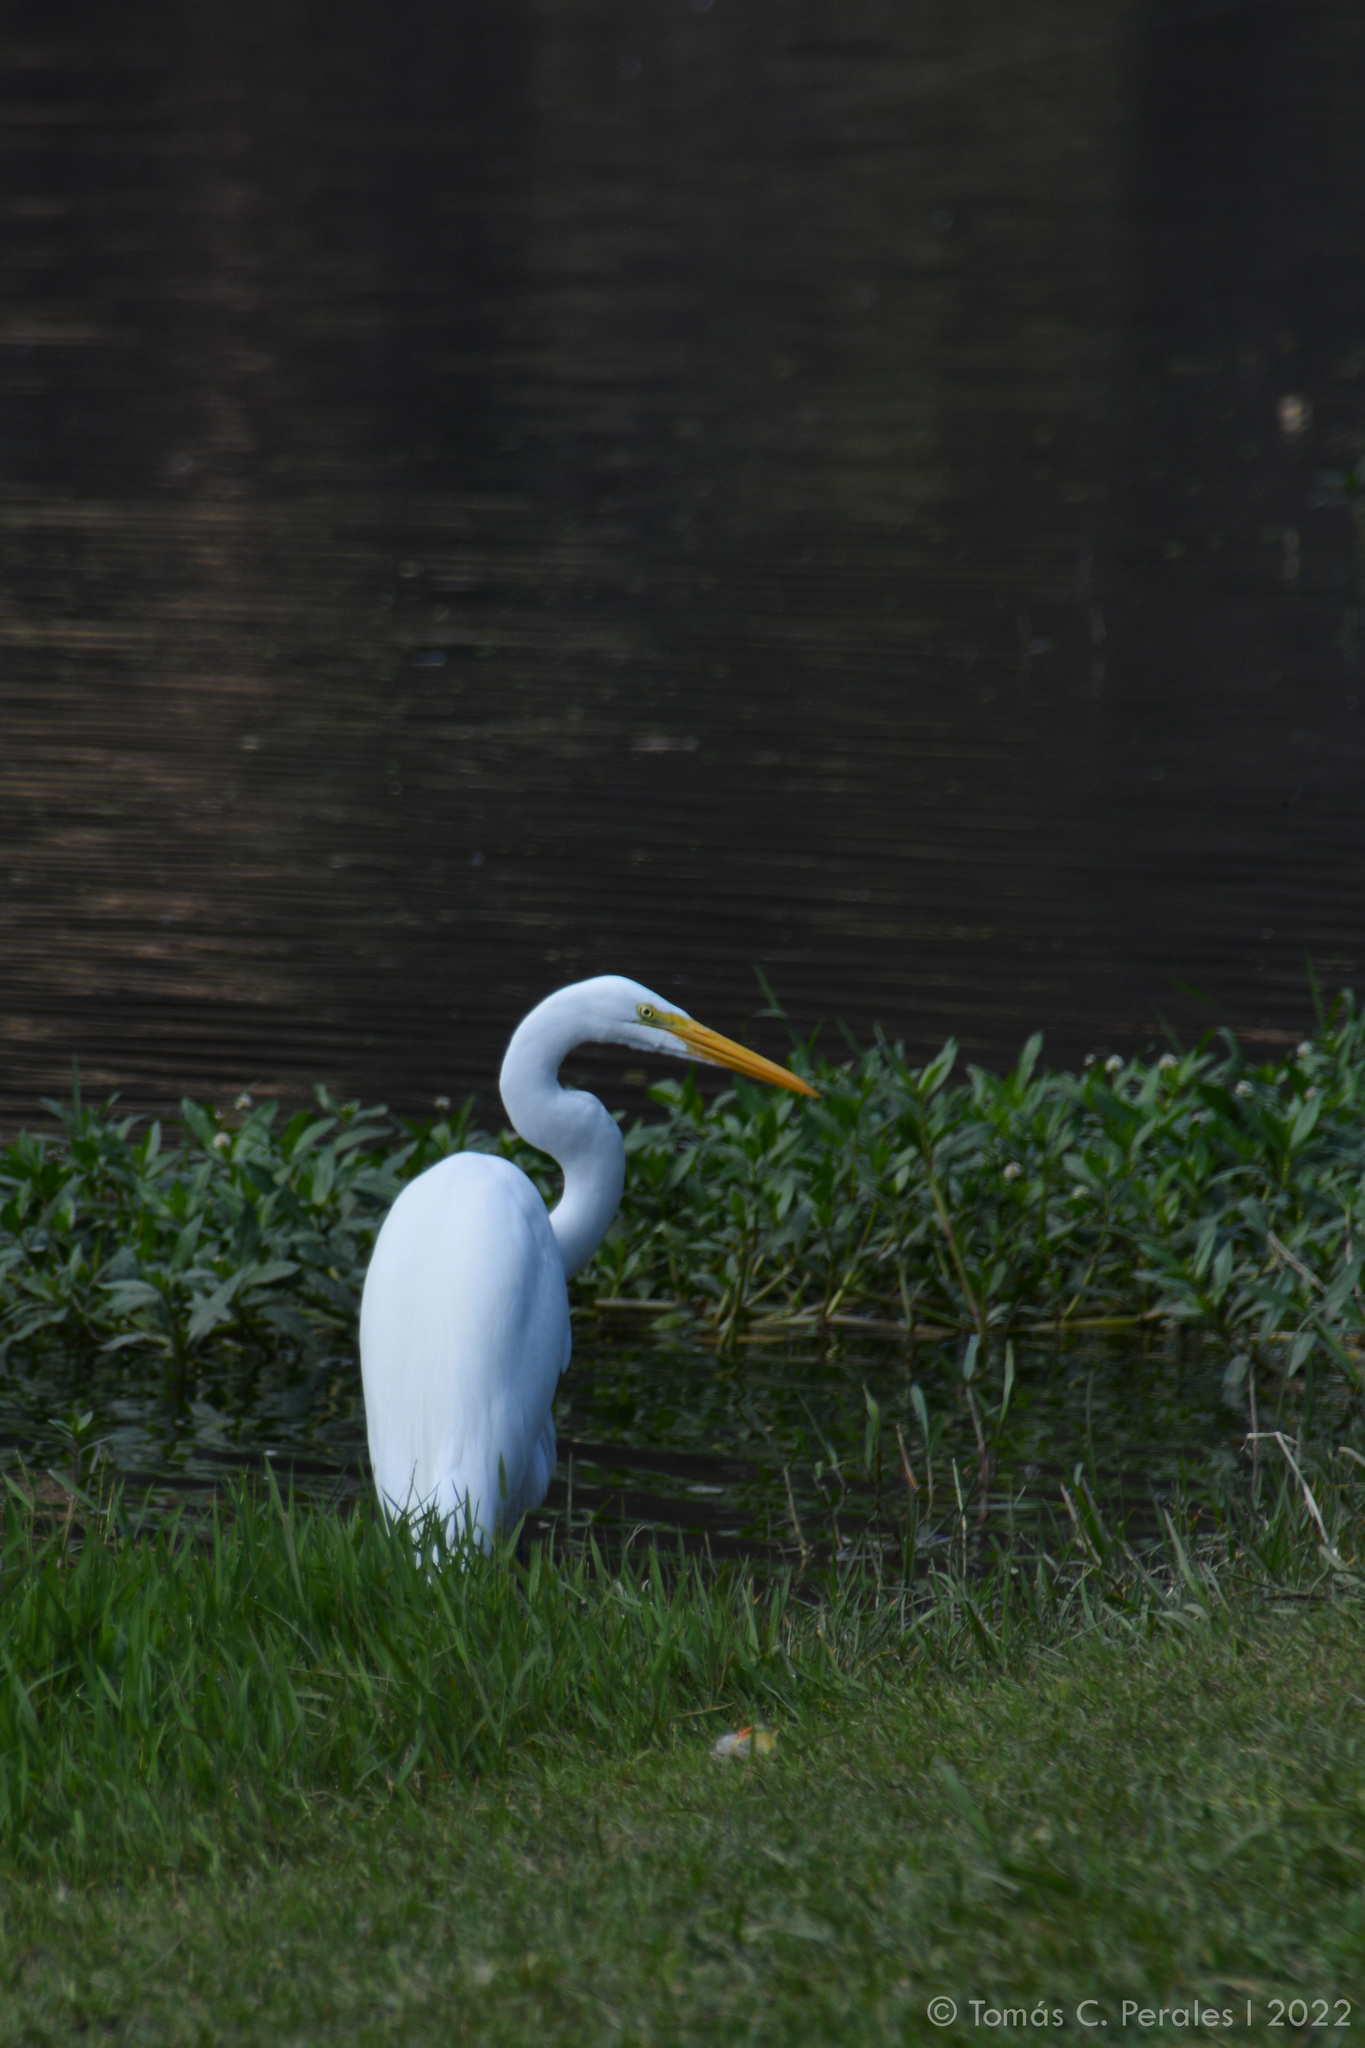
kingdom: Animalia
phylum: Chordata
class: Aves
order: Pelecaniformes
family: Ardeidae
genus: Ardea
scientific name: Ardea alba
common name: Great egret
